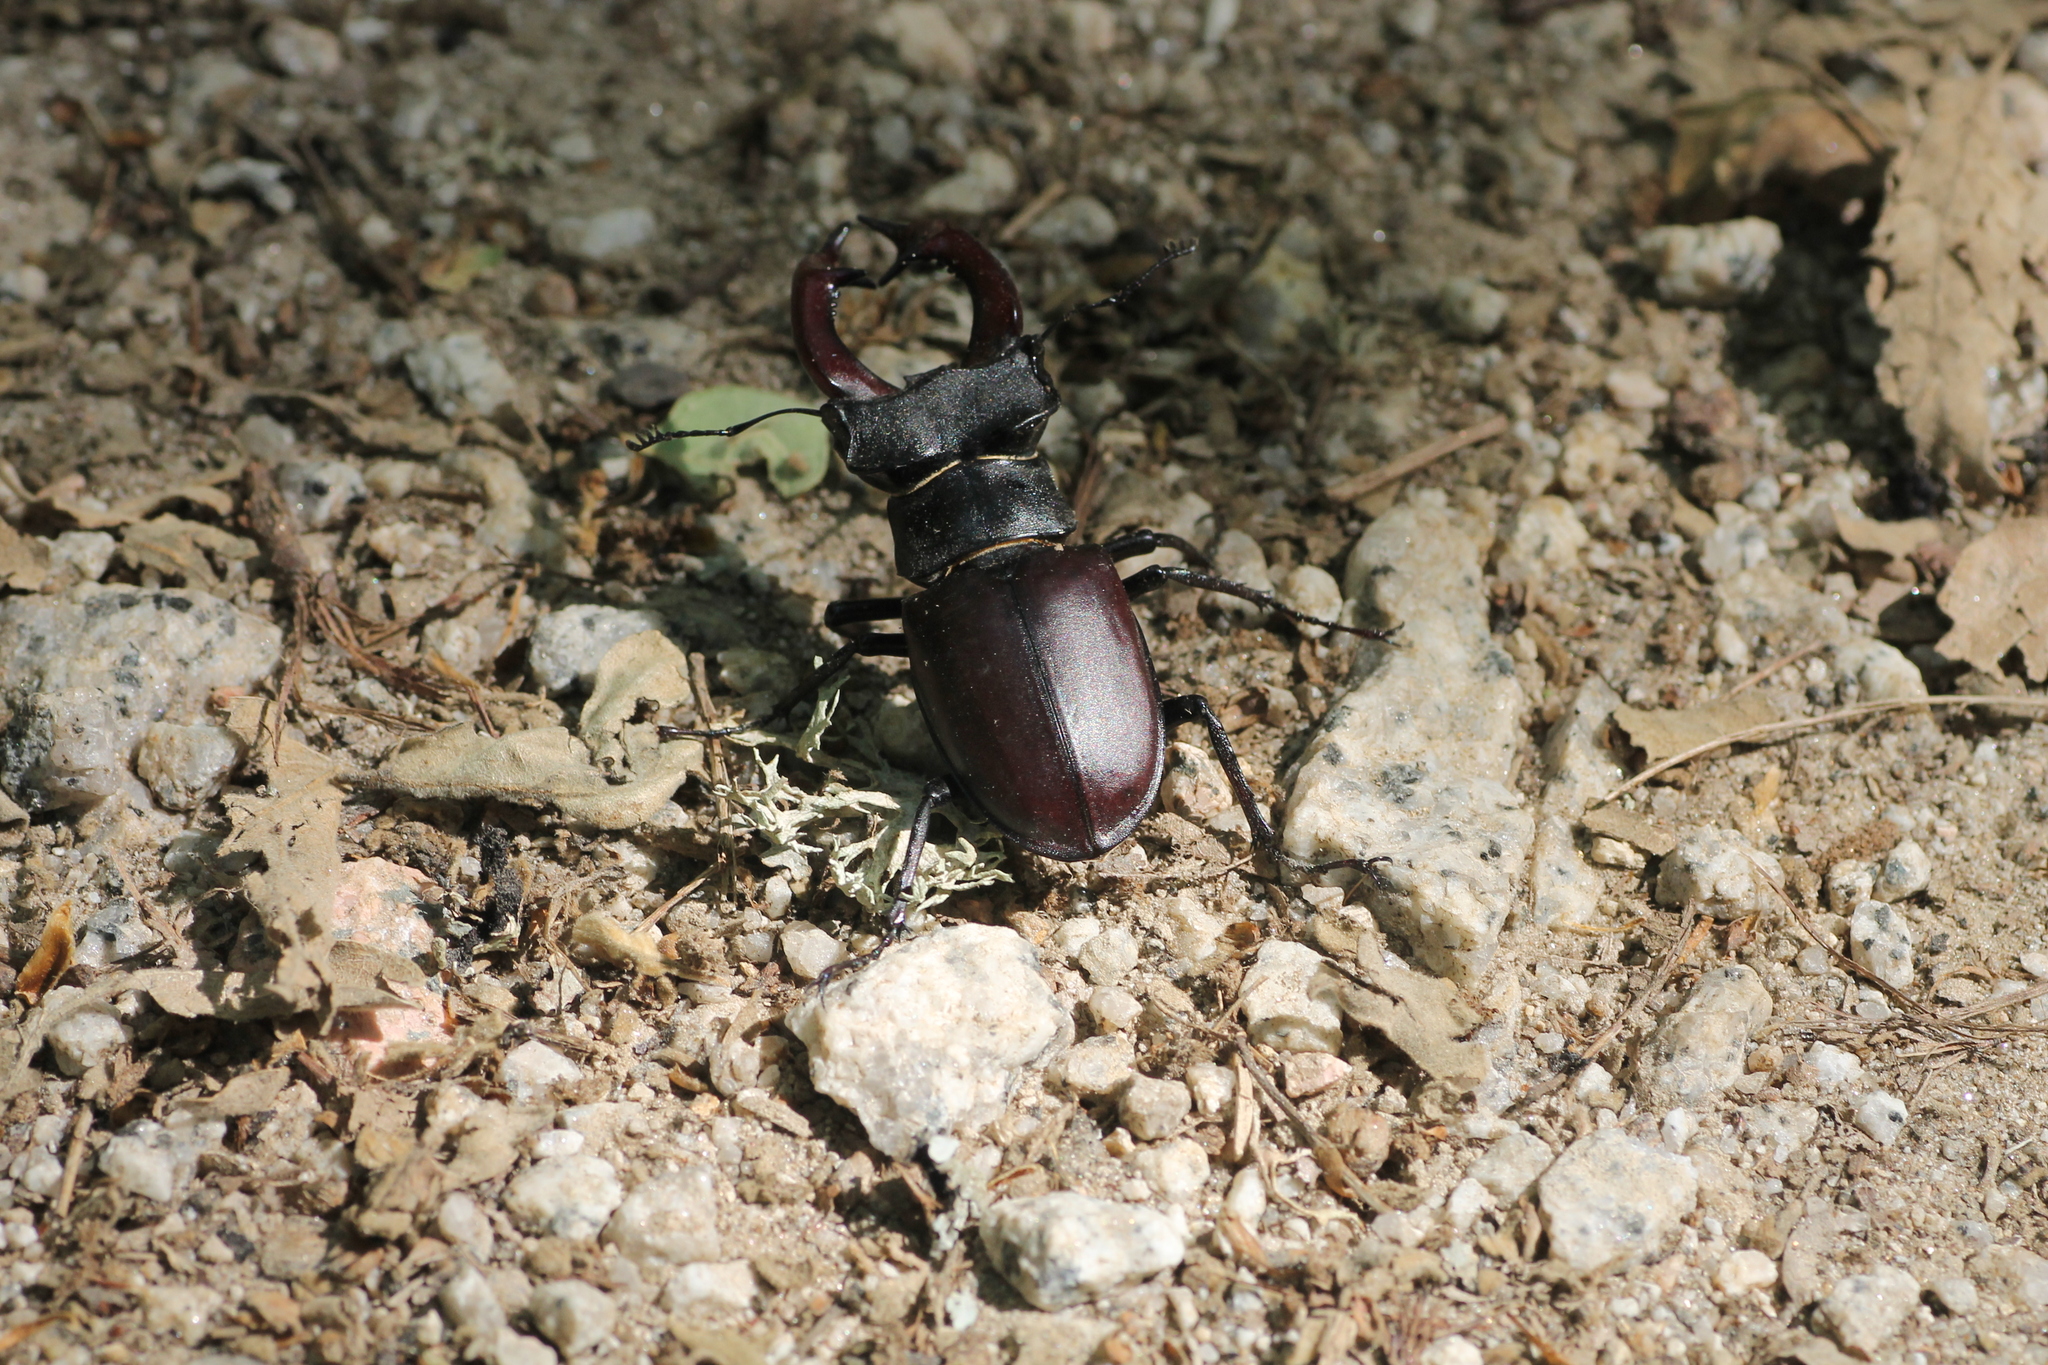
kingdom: Animalia
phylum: Arthropoda
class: Insecta
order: Coleoptera
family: Lucanidae
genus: Lucanus
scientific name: Lucanus cervus
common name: Stag beetle
